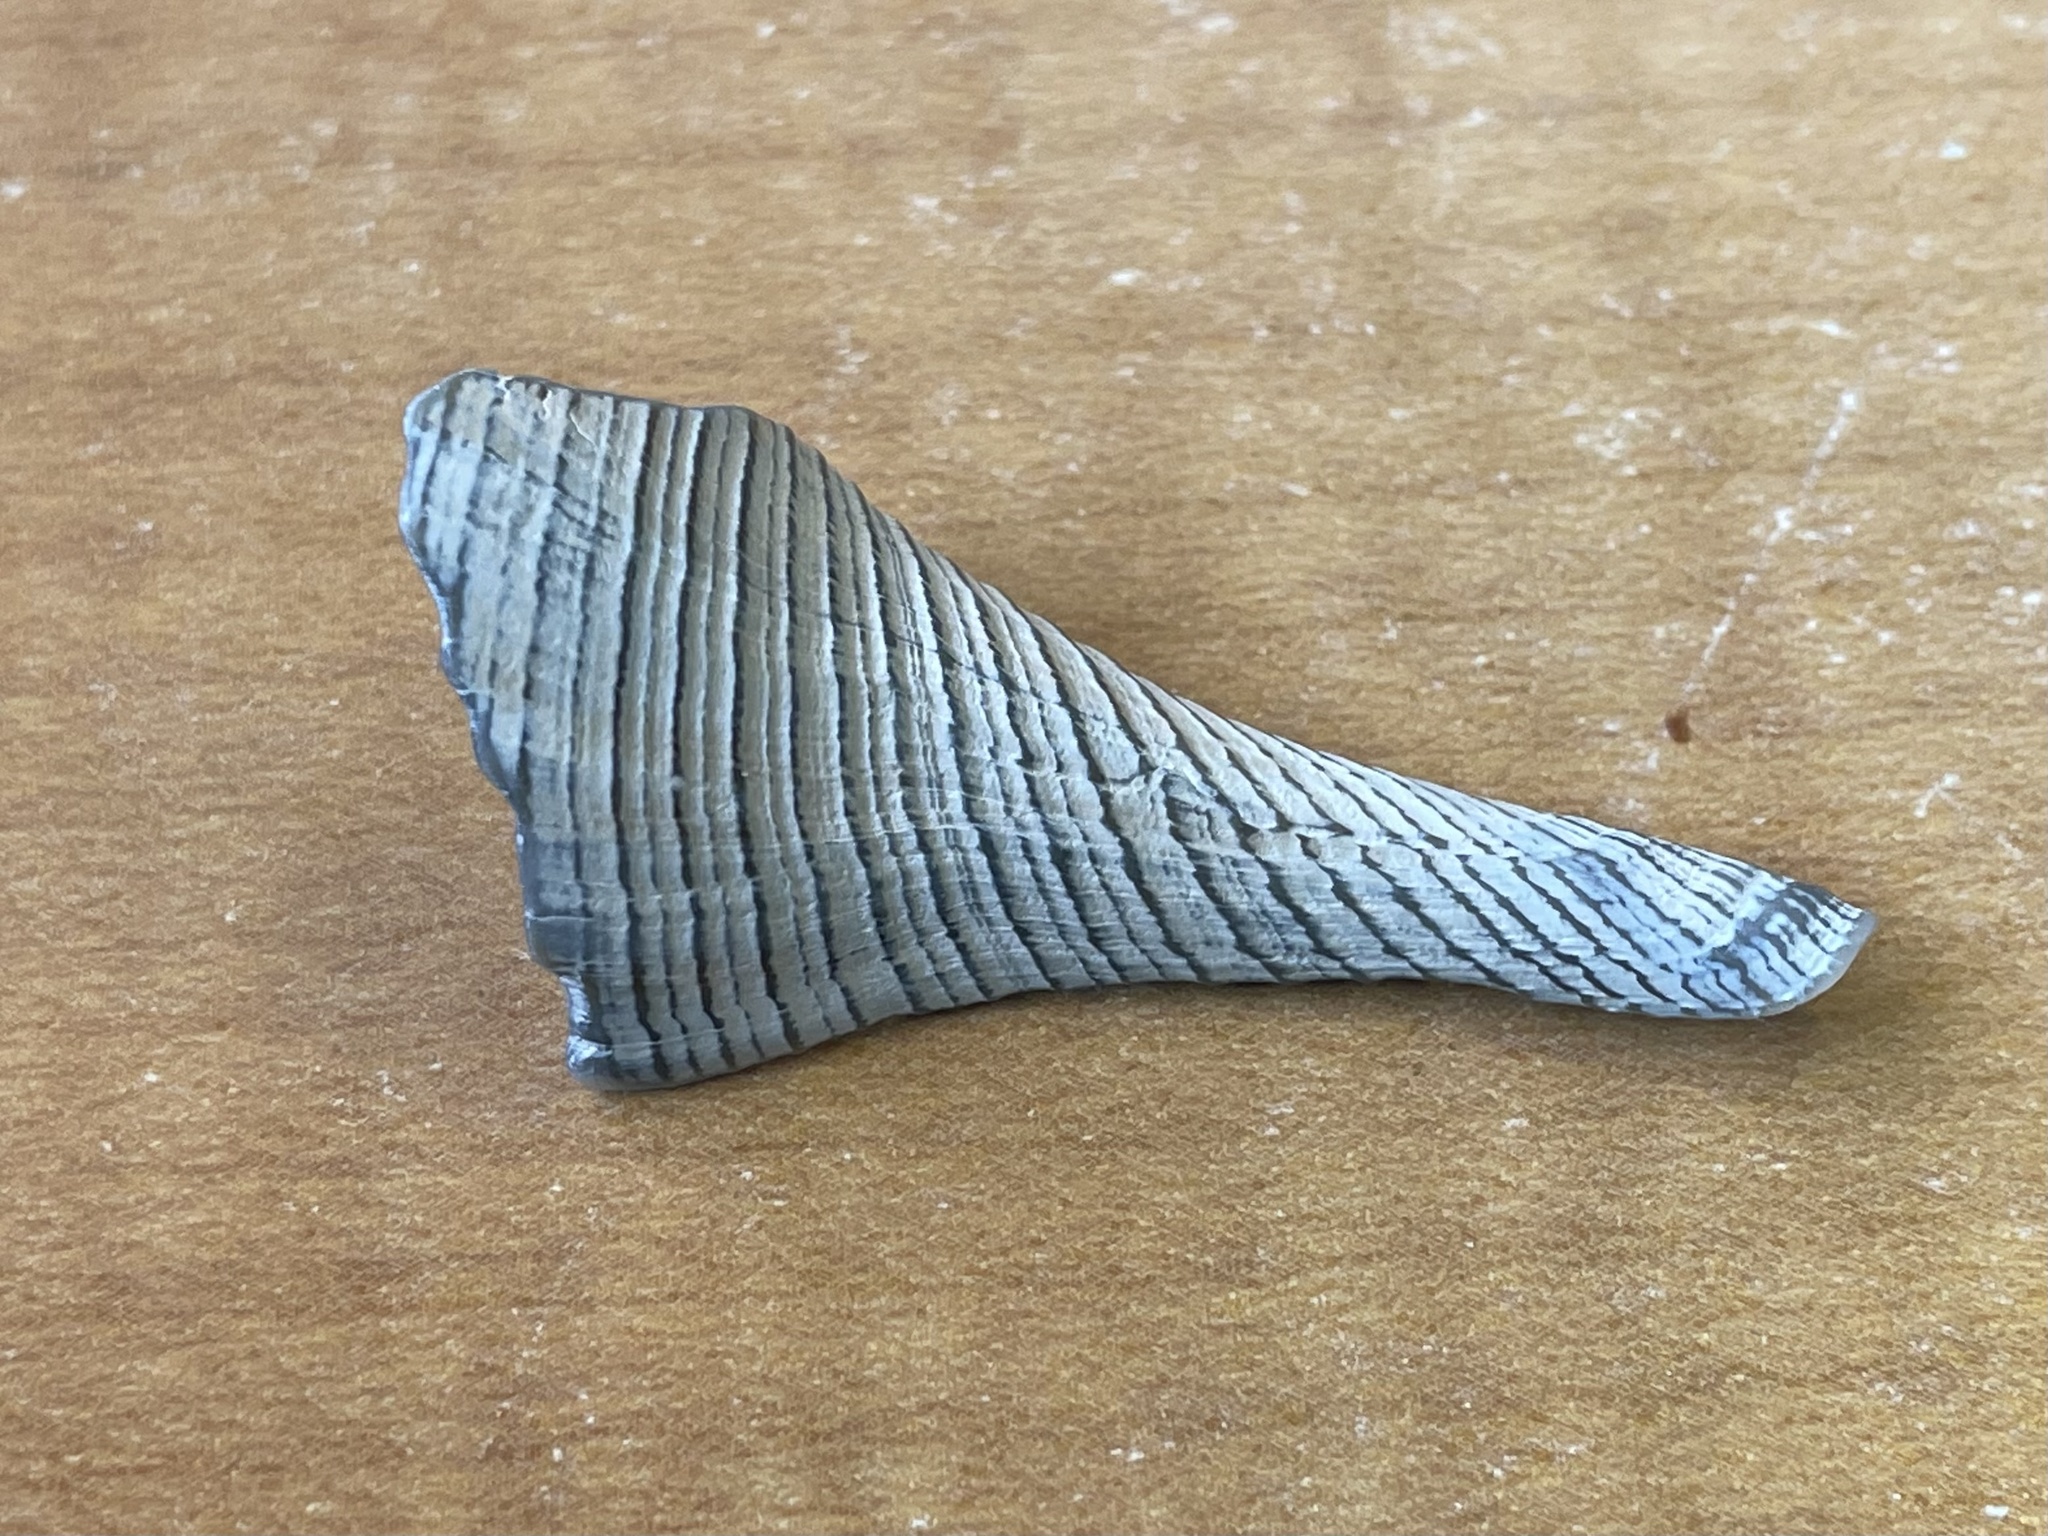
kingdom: Animalia
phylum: Mollusca
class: Gastropoda
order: Neogastropoda
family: Busyconidae
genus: Sinistrofulgur
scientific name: Sinistrofulgur pulleyi
